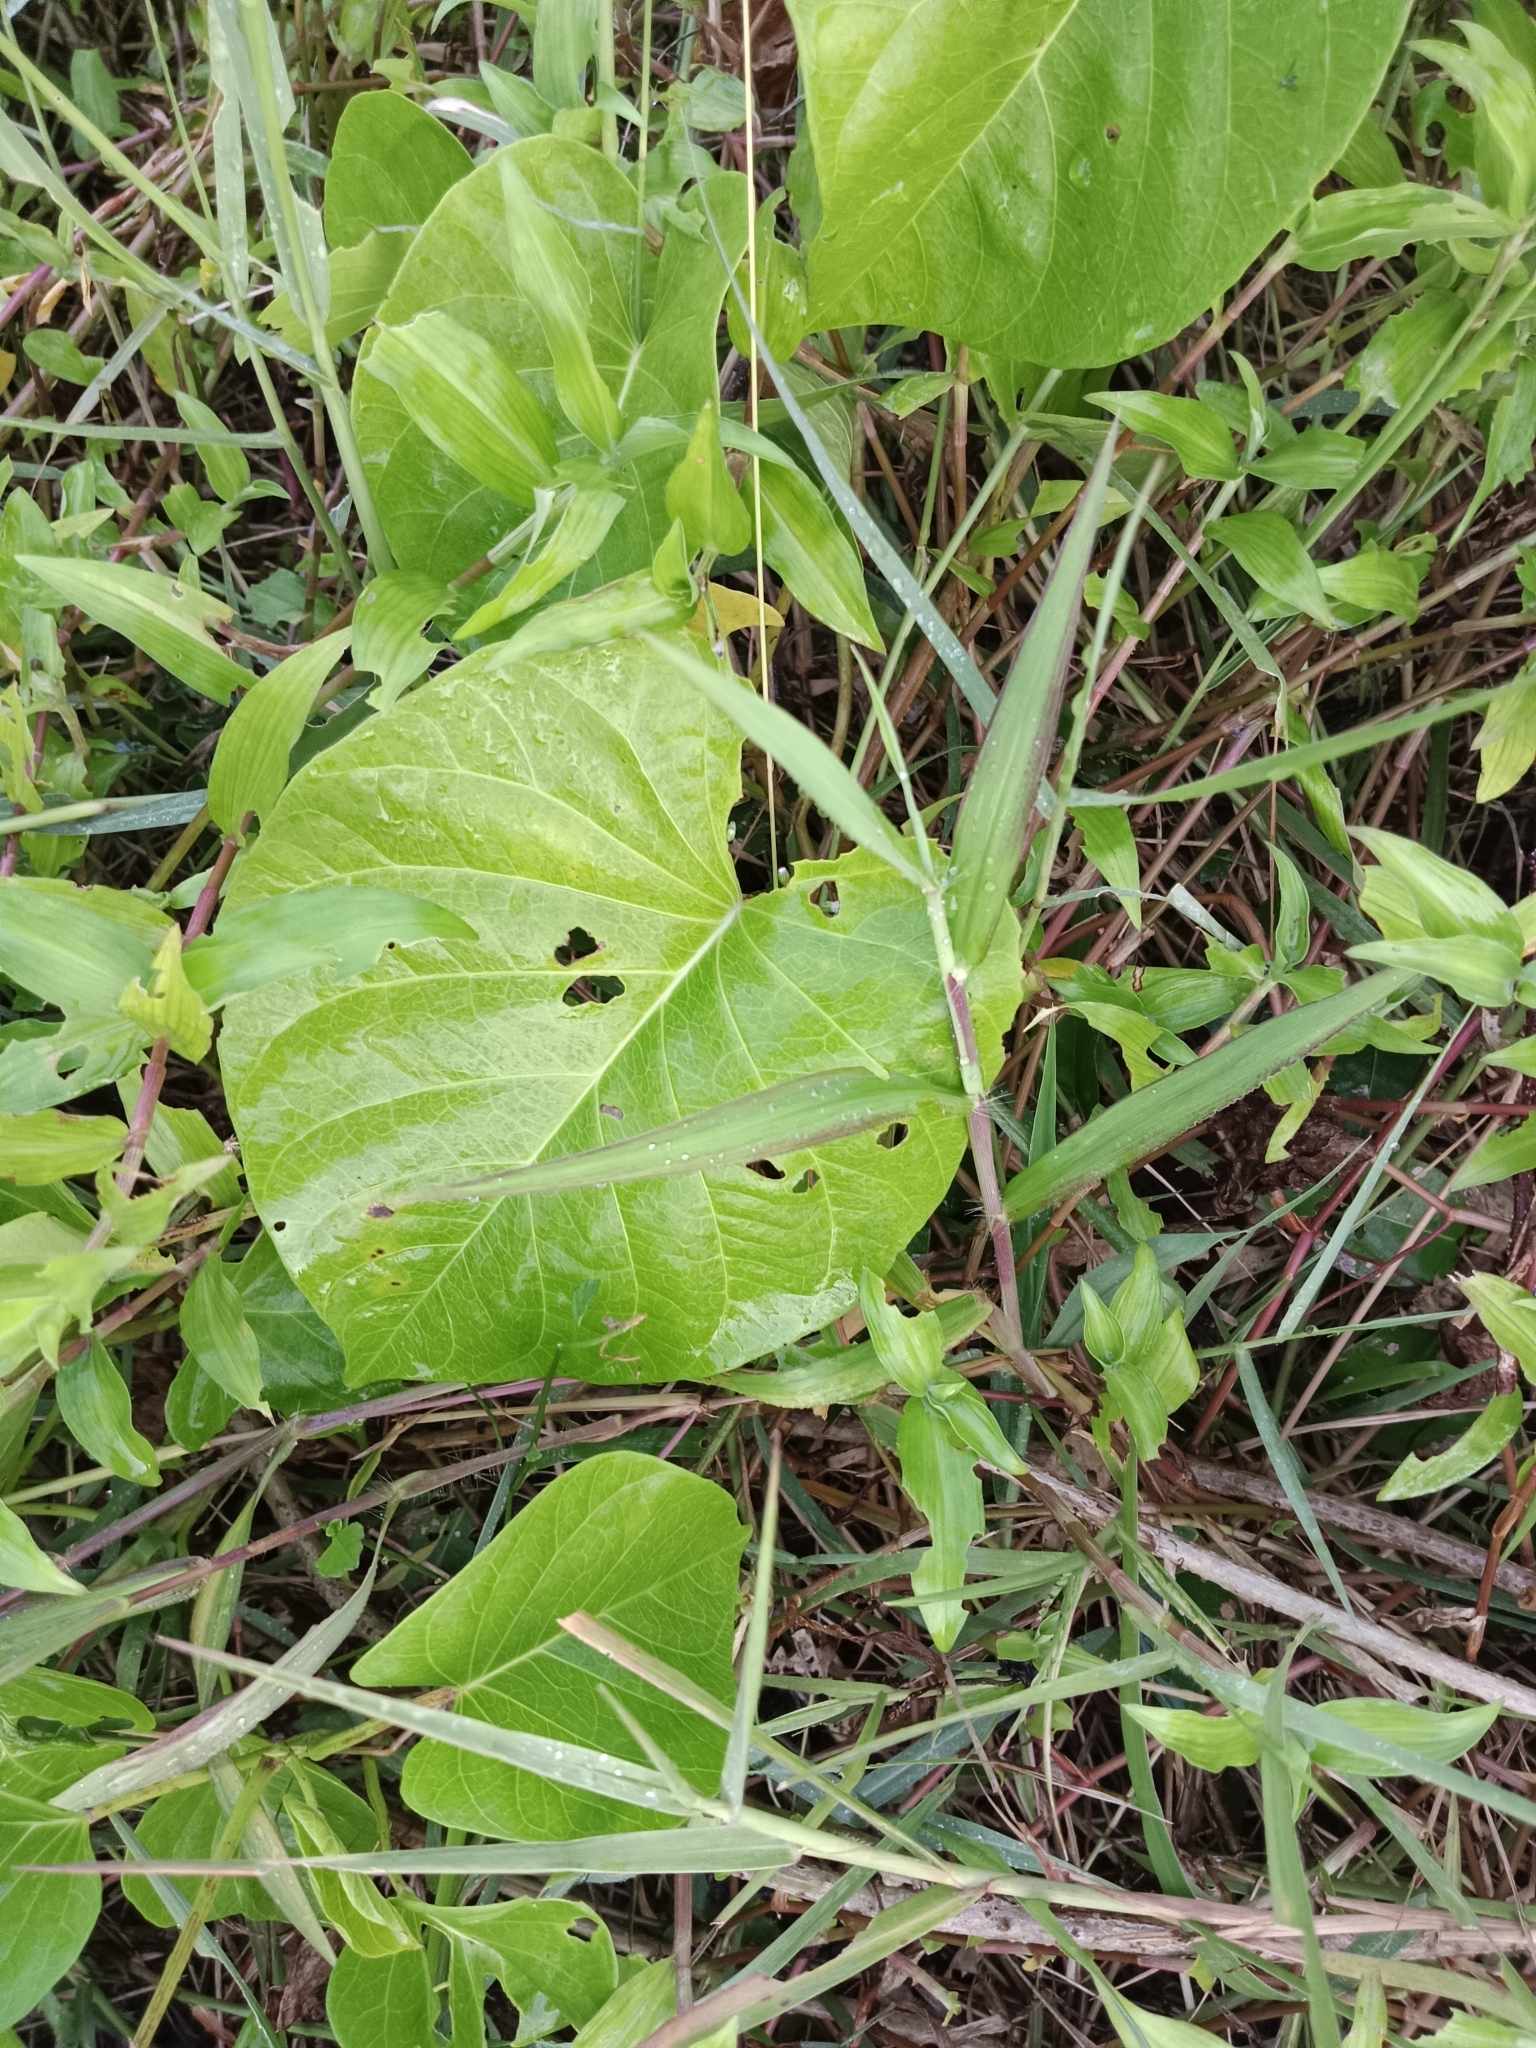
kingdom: Plantae
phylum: Tracheophyta
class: Magnoliopsida
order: Solanales
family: Convolvulaceae
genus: Ipomoea
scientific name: Ipomoea violacea
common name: Beach moonflower
